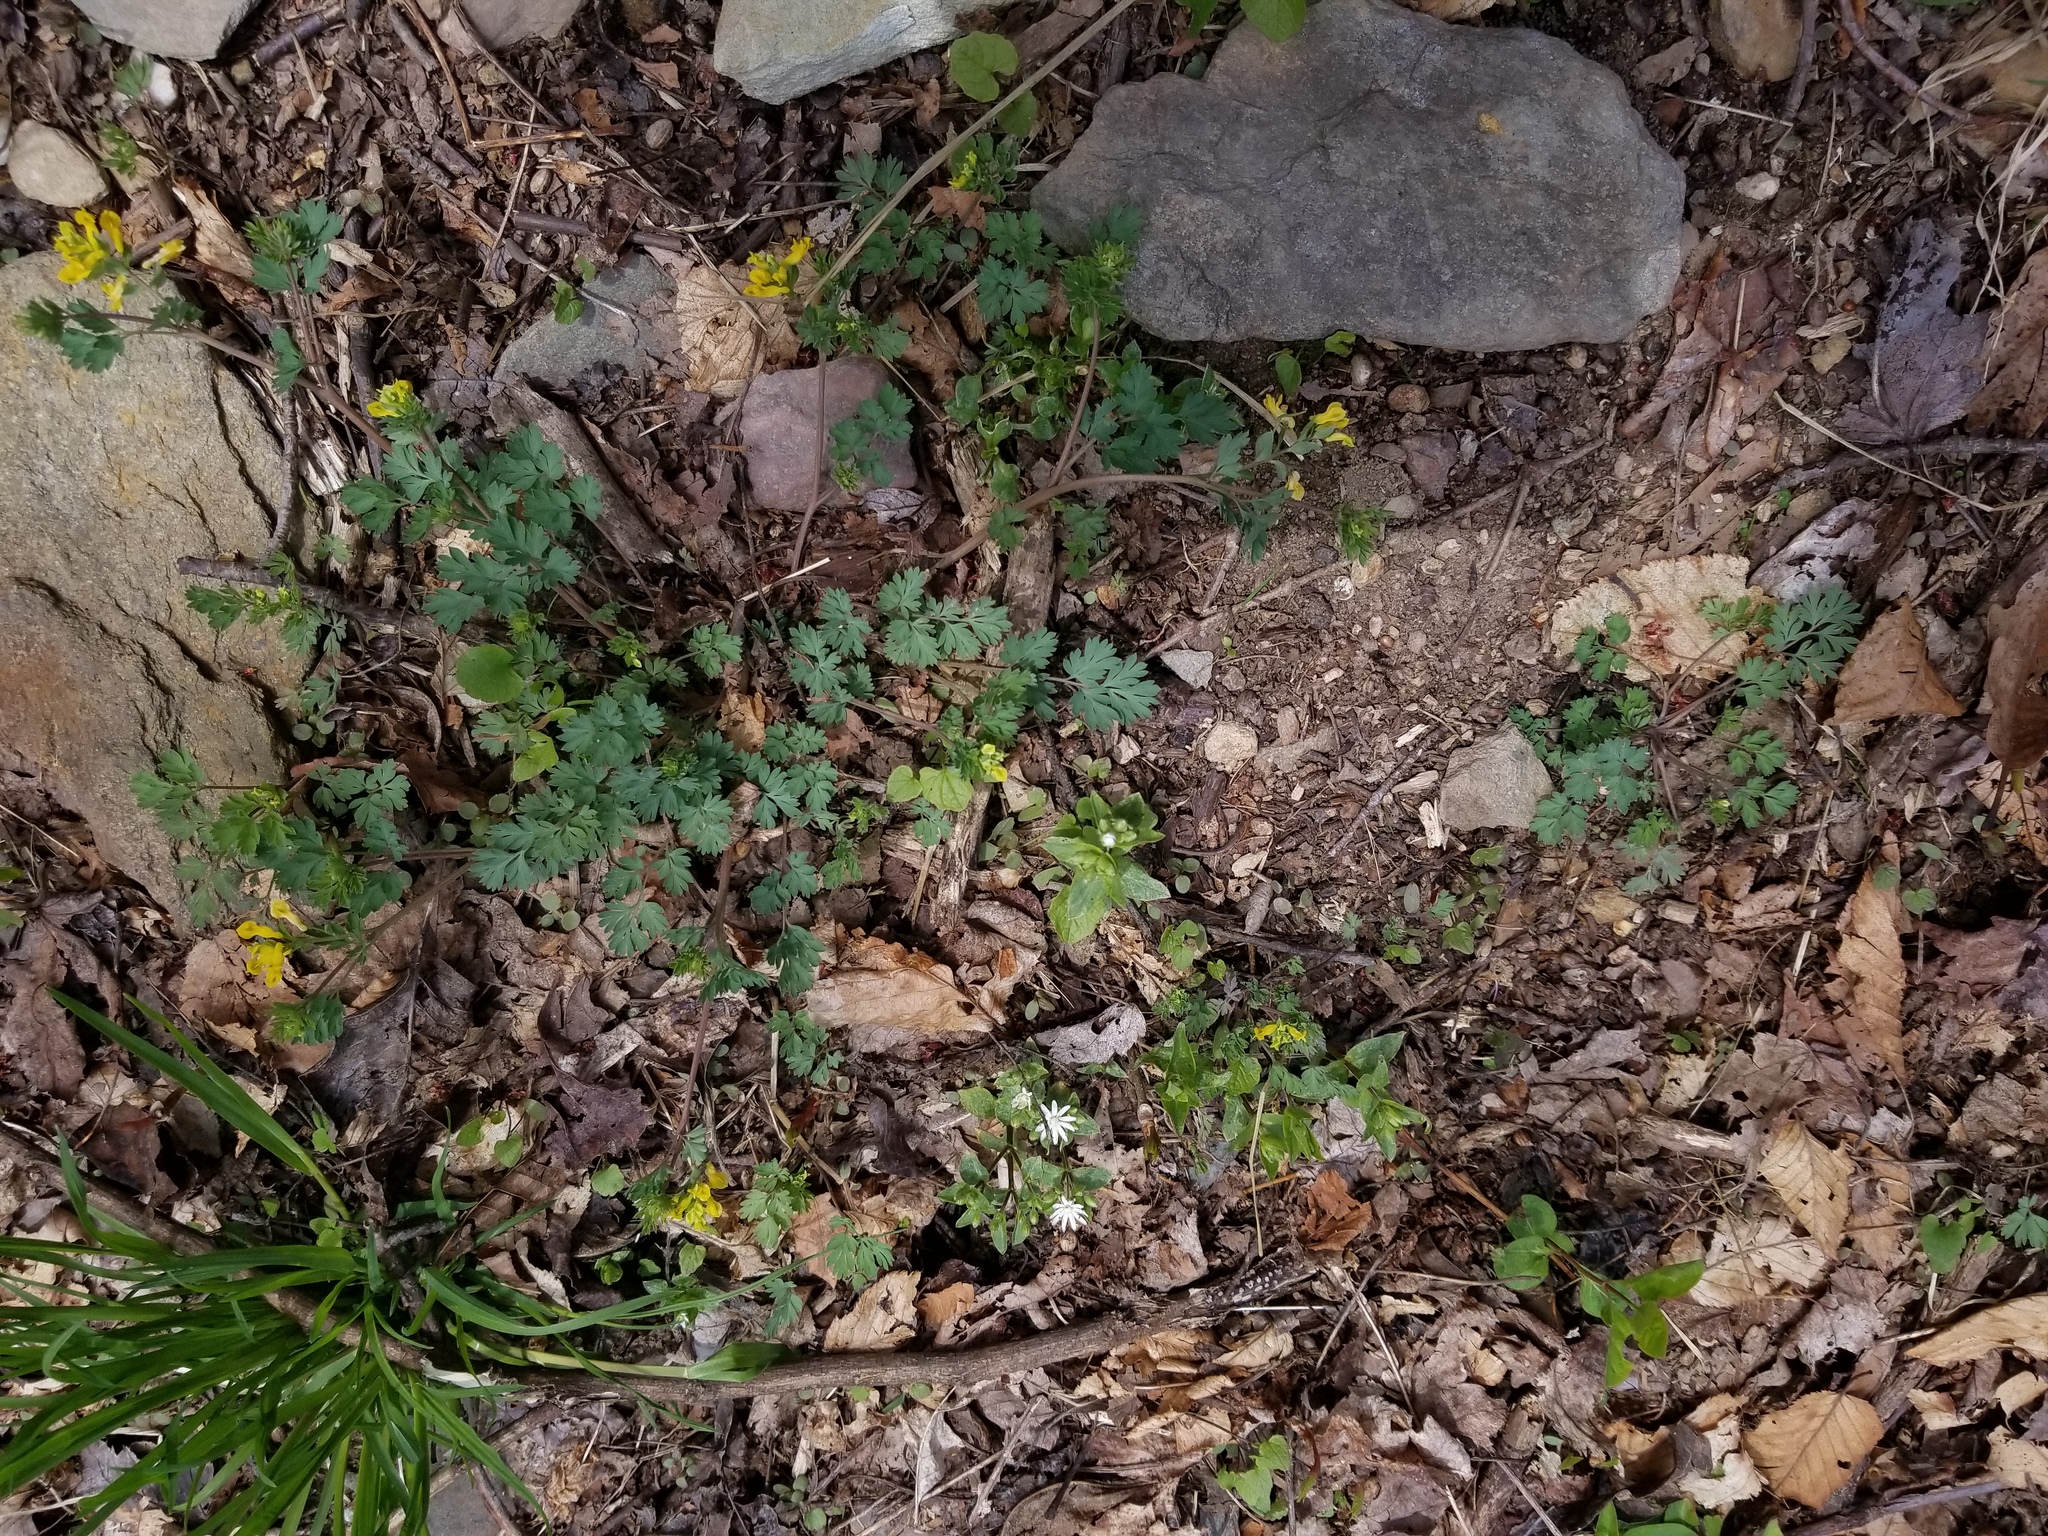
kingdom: Plantae
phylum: Tracheophyta
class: Magnoliopsida
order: Ranunculales
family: Papaveraceae
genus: Corydalis
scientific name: Corydalis flavula
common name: Yellow corydalis
